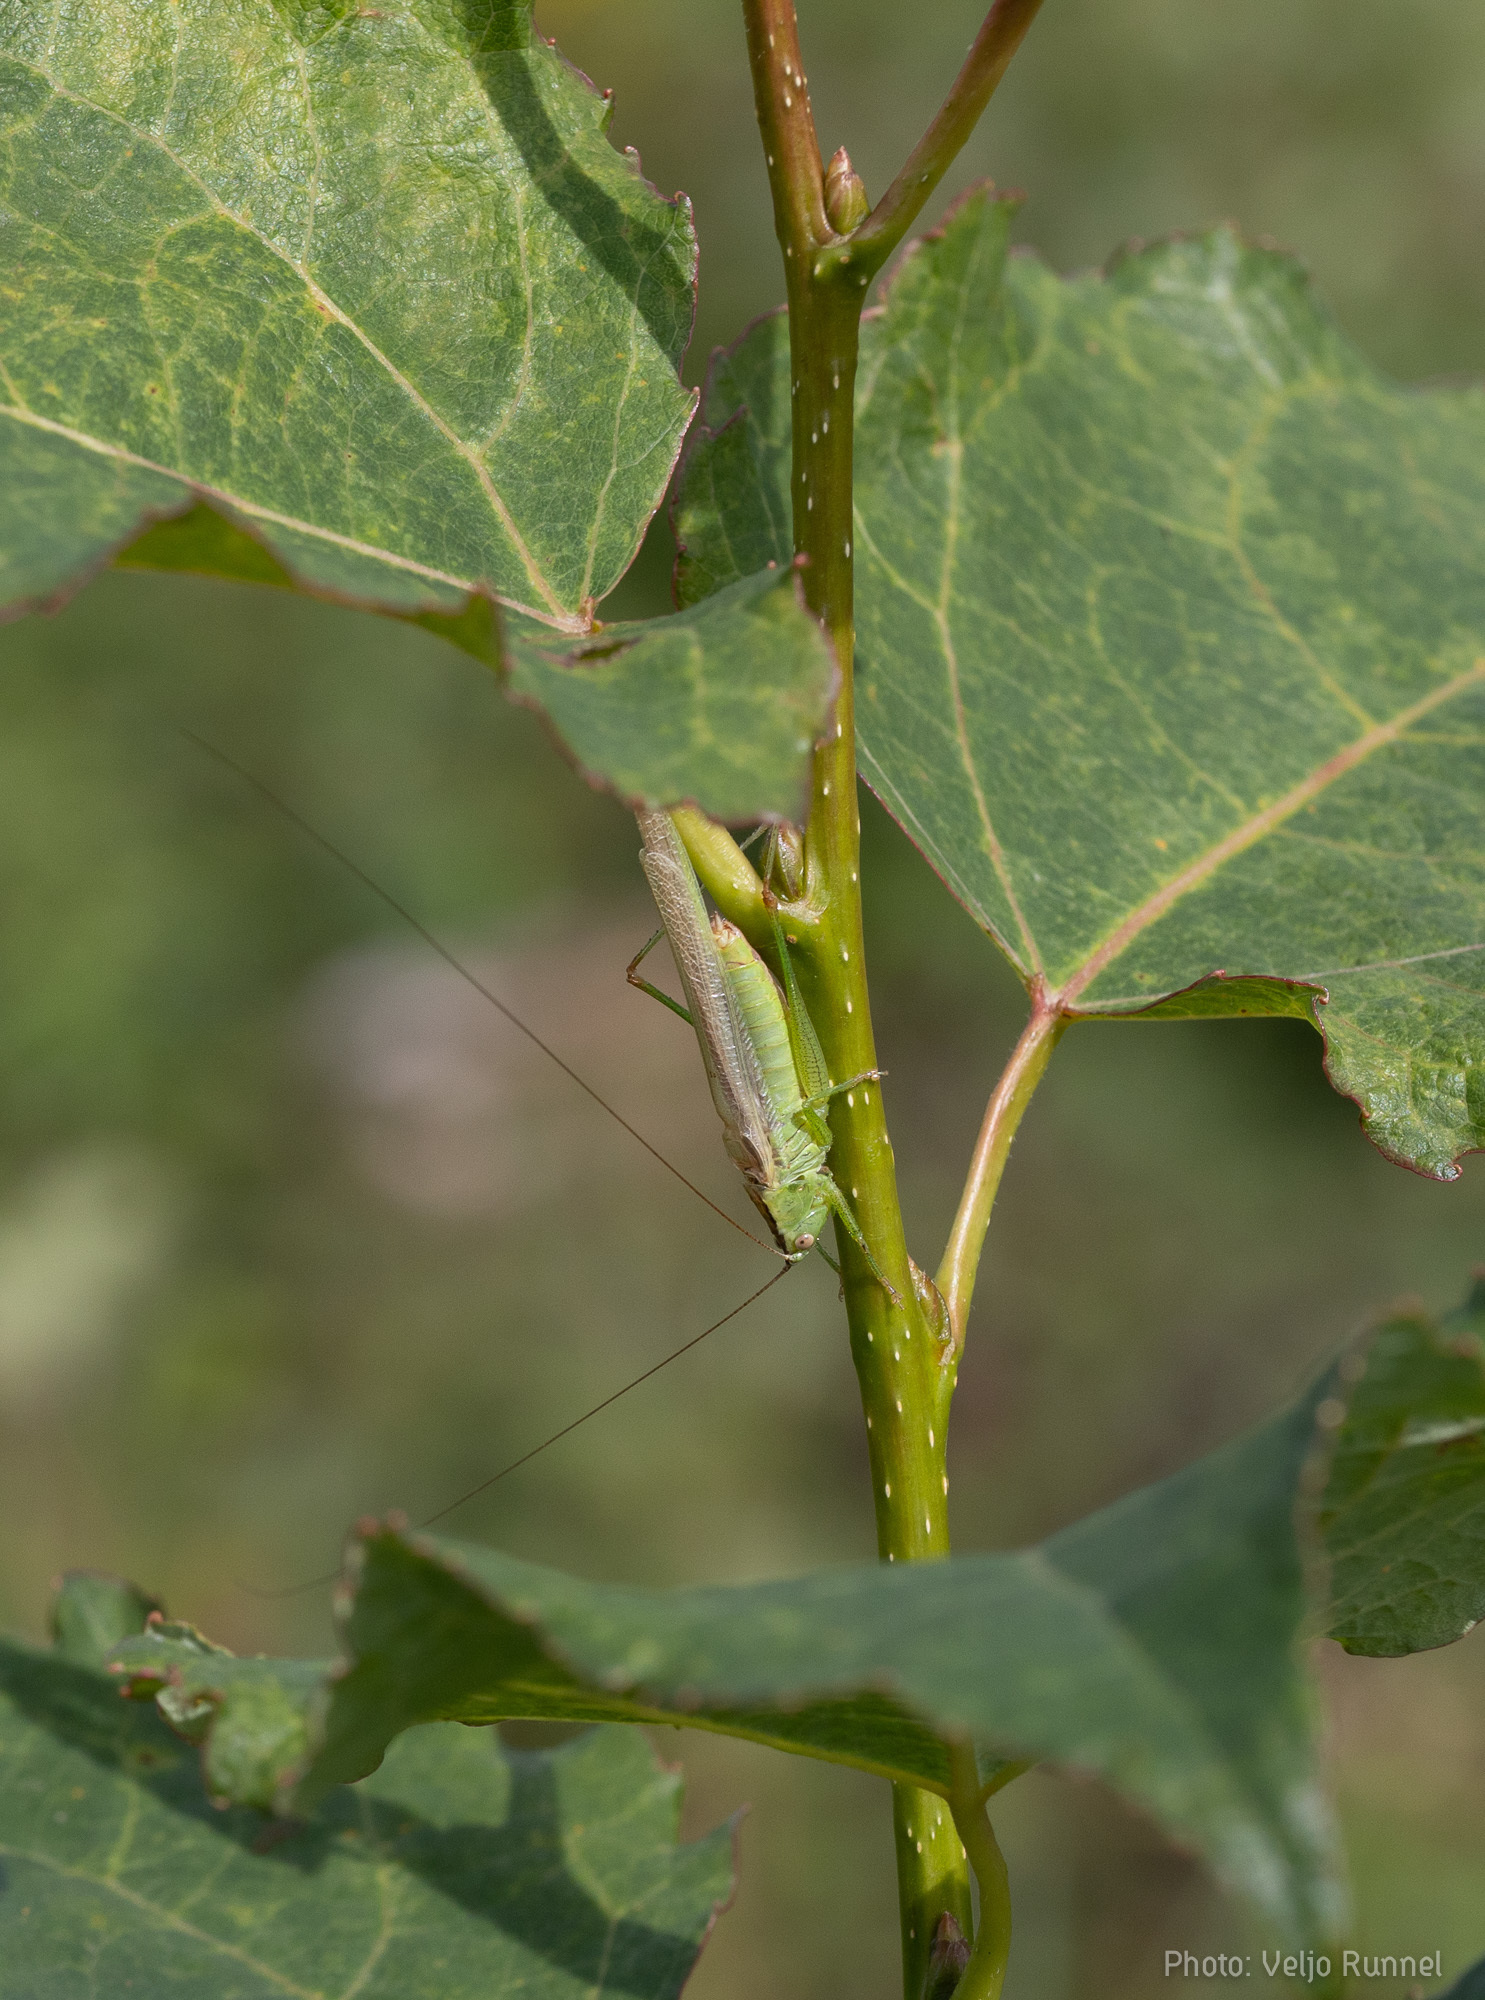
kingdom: Animalia
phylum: Arthropoda
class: Insecta
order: Orthoptera
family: Tettigoniidae
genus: Conocephalus
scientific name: Conocephalus fuscus
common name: Long-winged conehead
